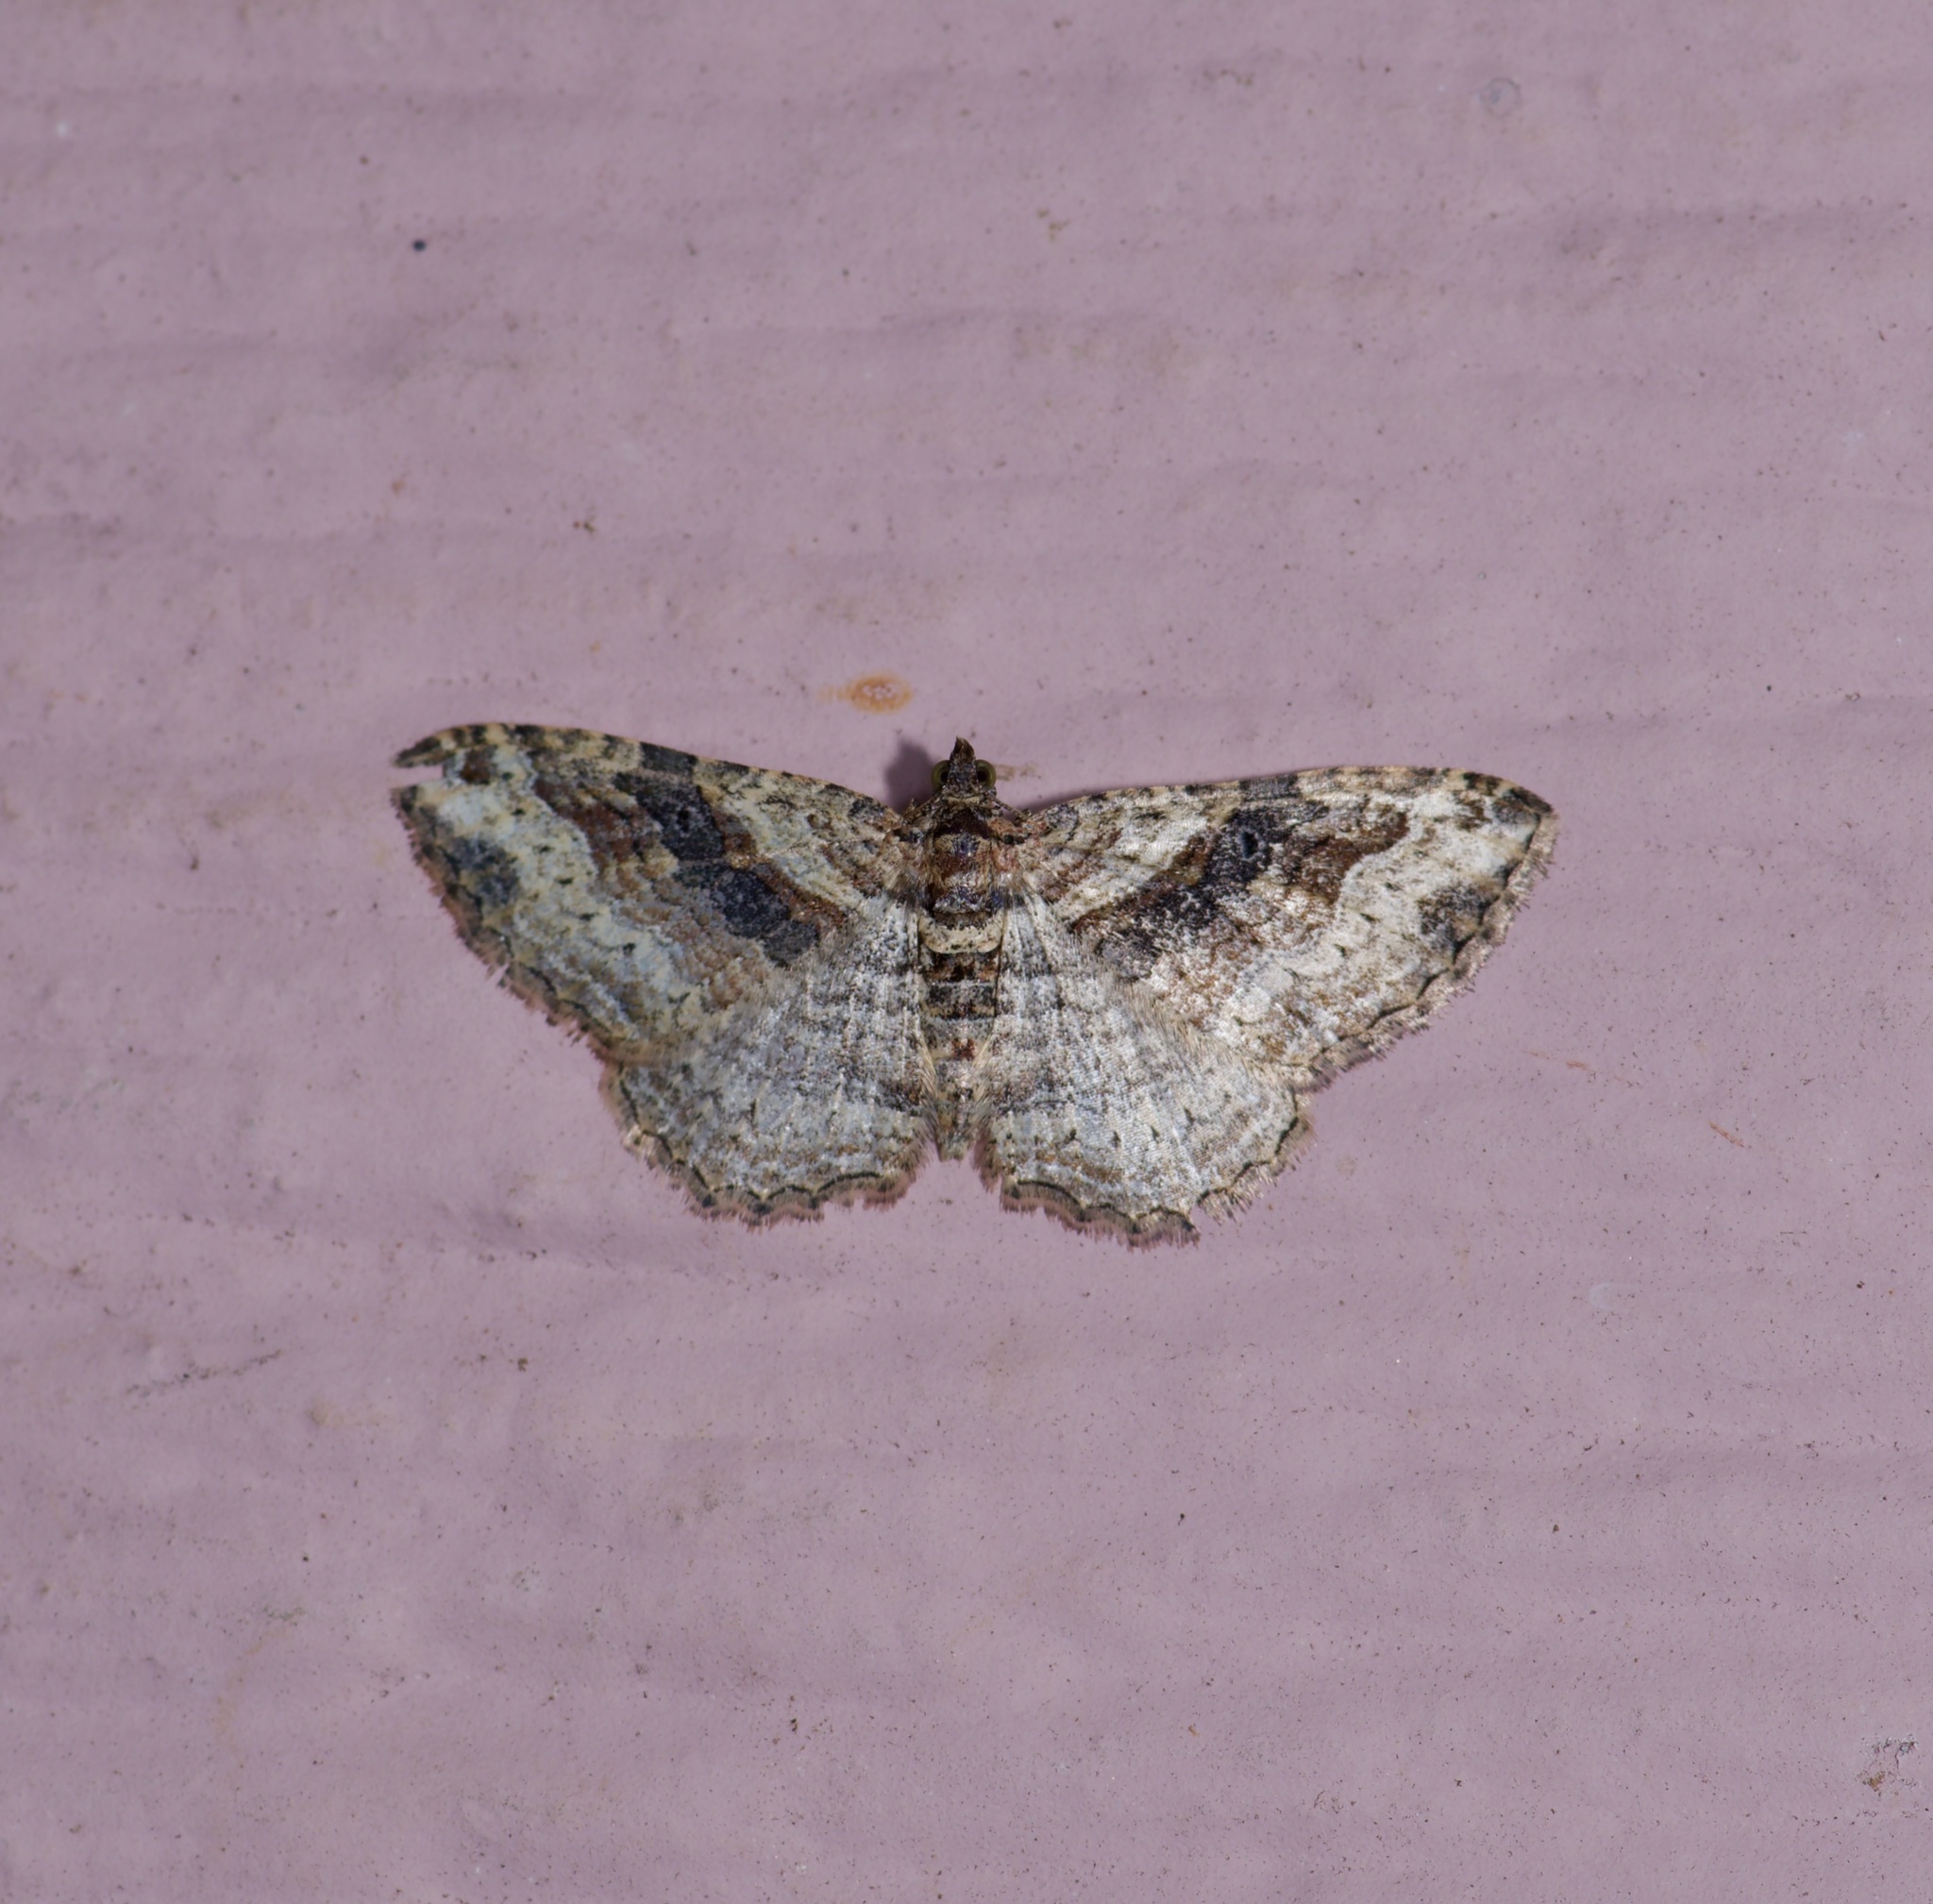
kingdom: Animalia
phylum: Arthropoda
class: Insecta
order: Lepidoptera
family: Geometridae
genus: Costaconvexa
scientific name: Costaconvexa centrostrigaria
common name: Bent-line carpet
